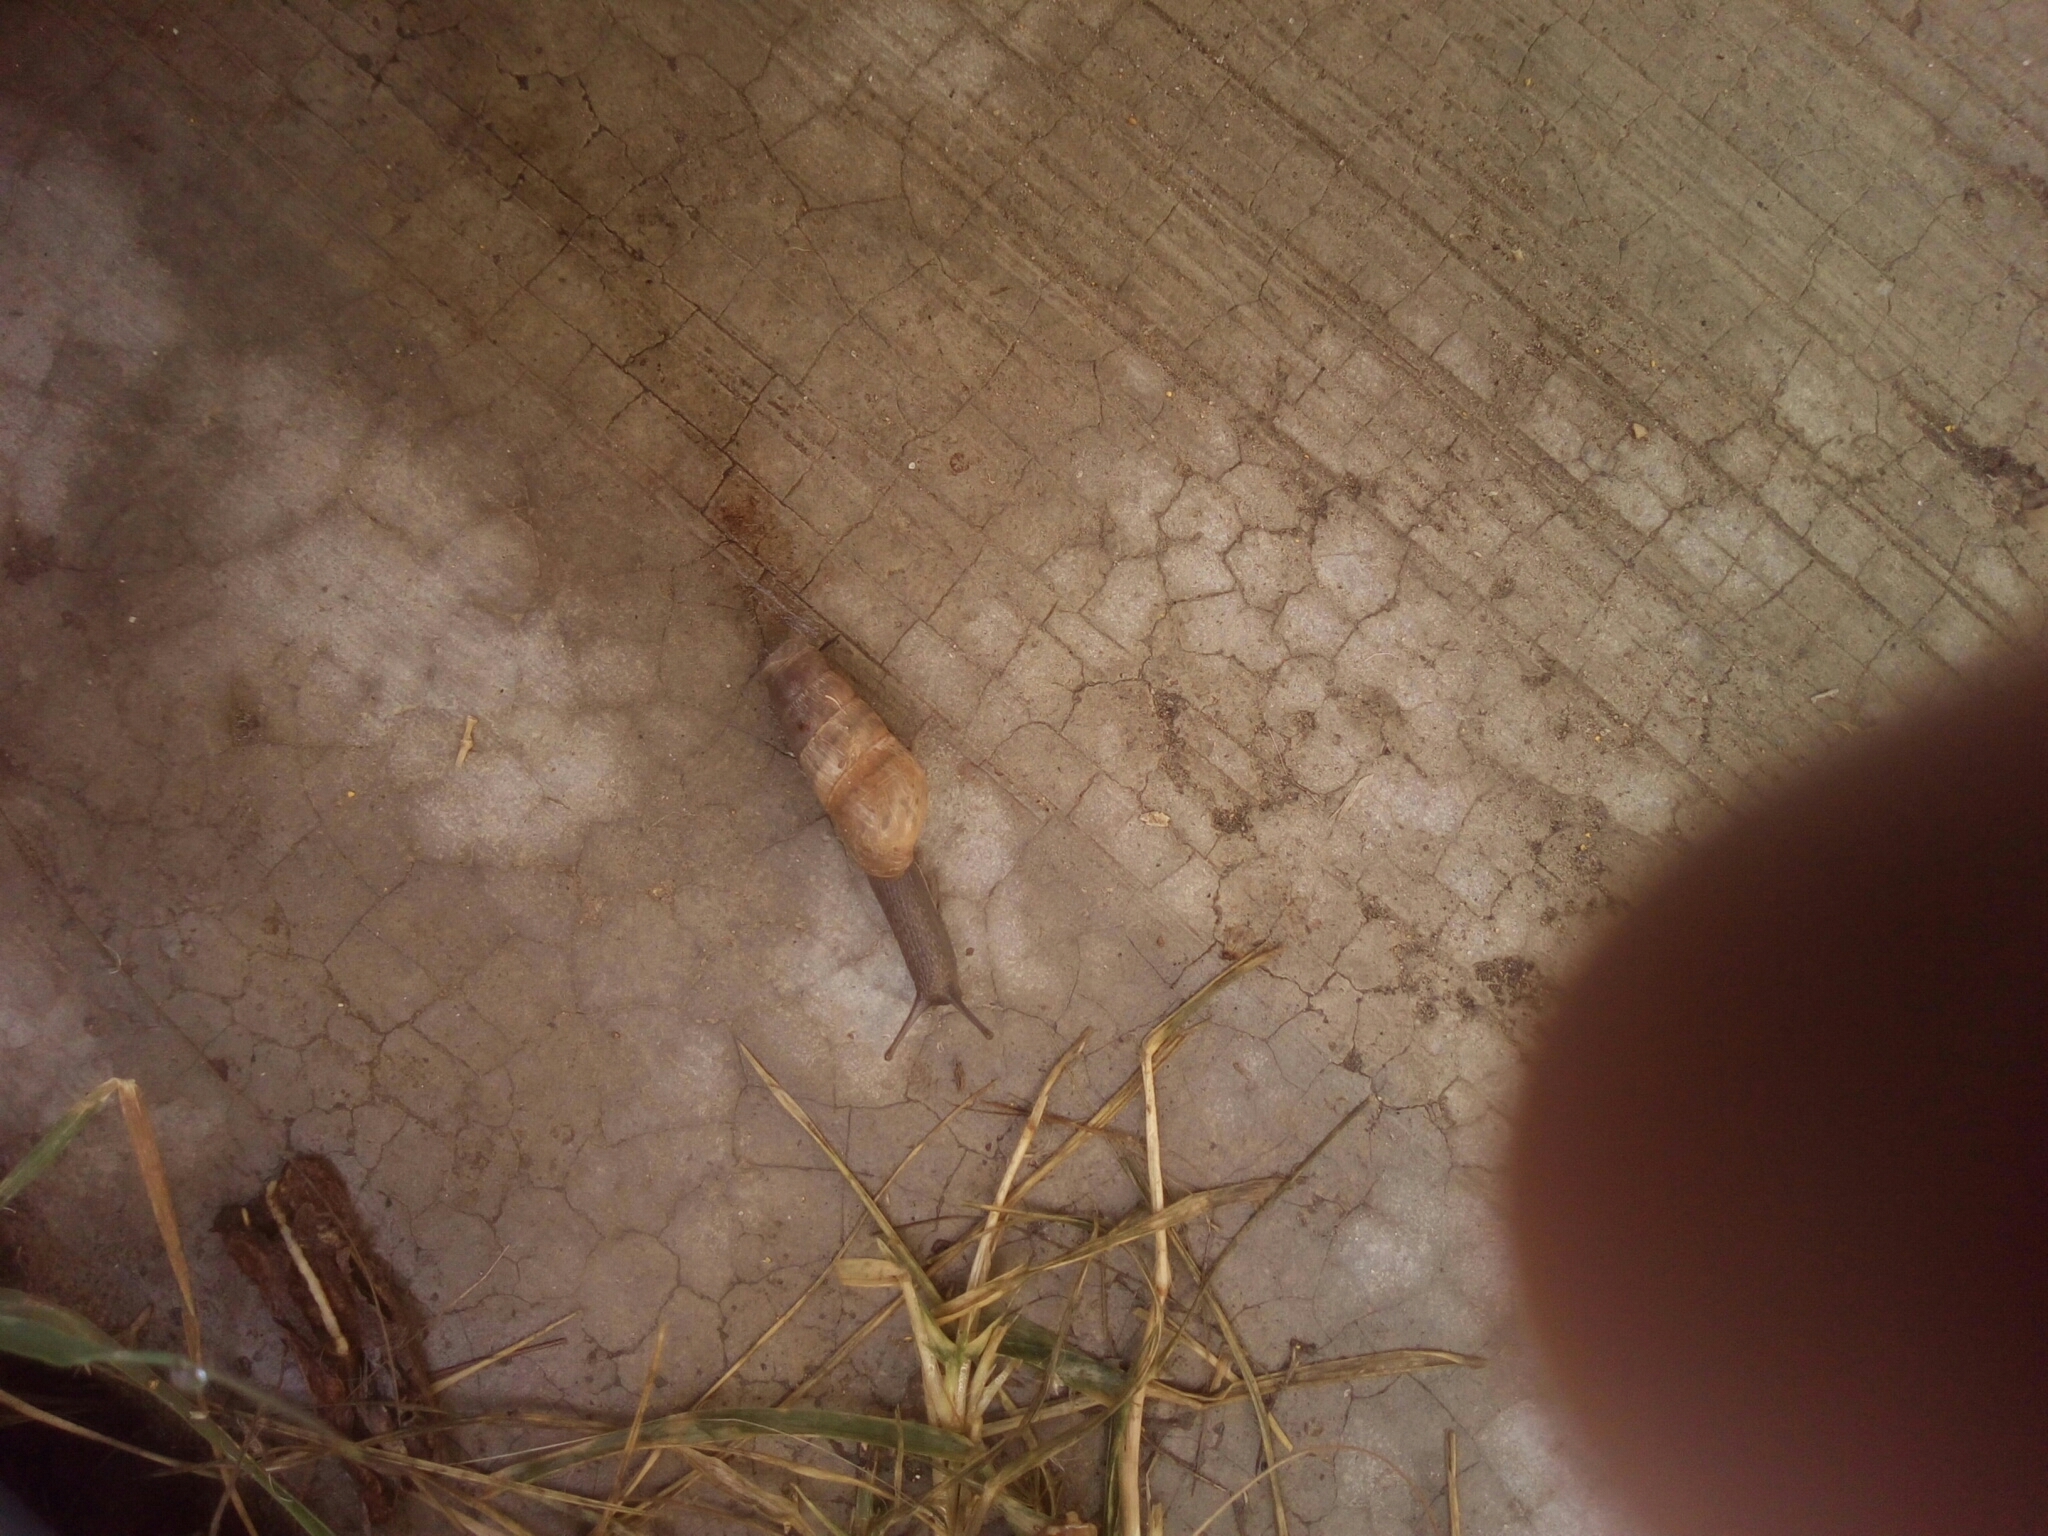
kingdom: Animalia
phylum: Mollusca
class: Gastropoda
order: Stylommatophora
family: Achatinidae
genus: Rumina
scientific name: Rumina decollata
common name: Decollate snail
